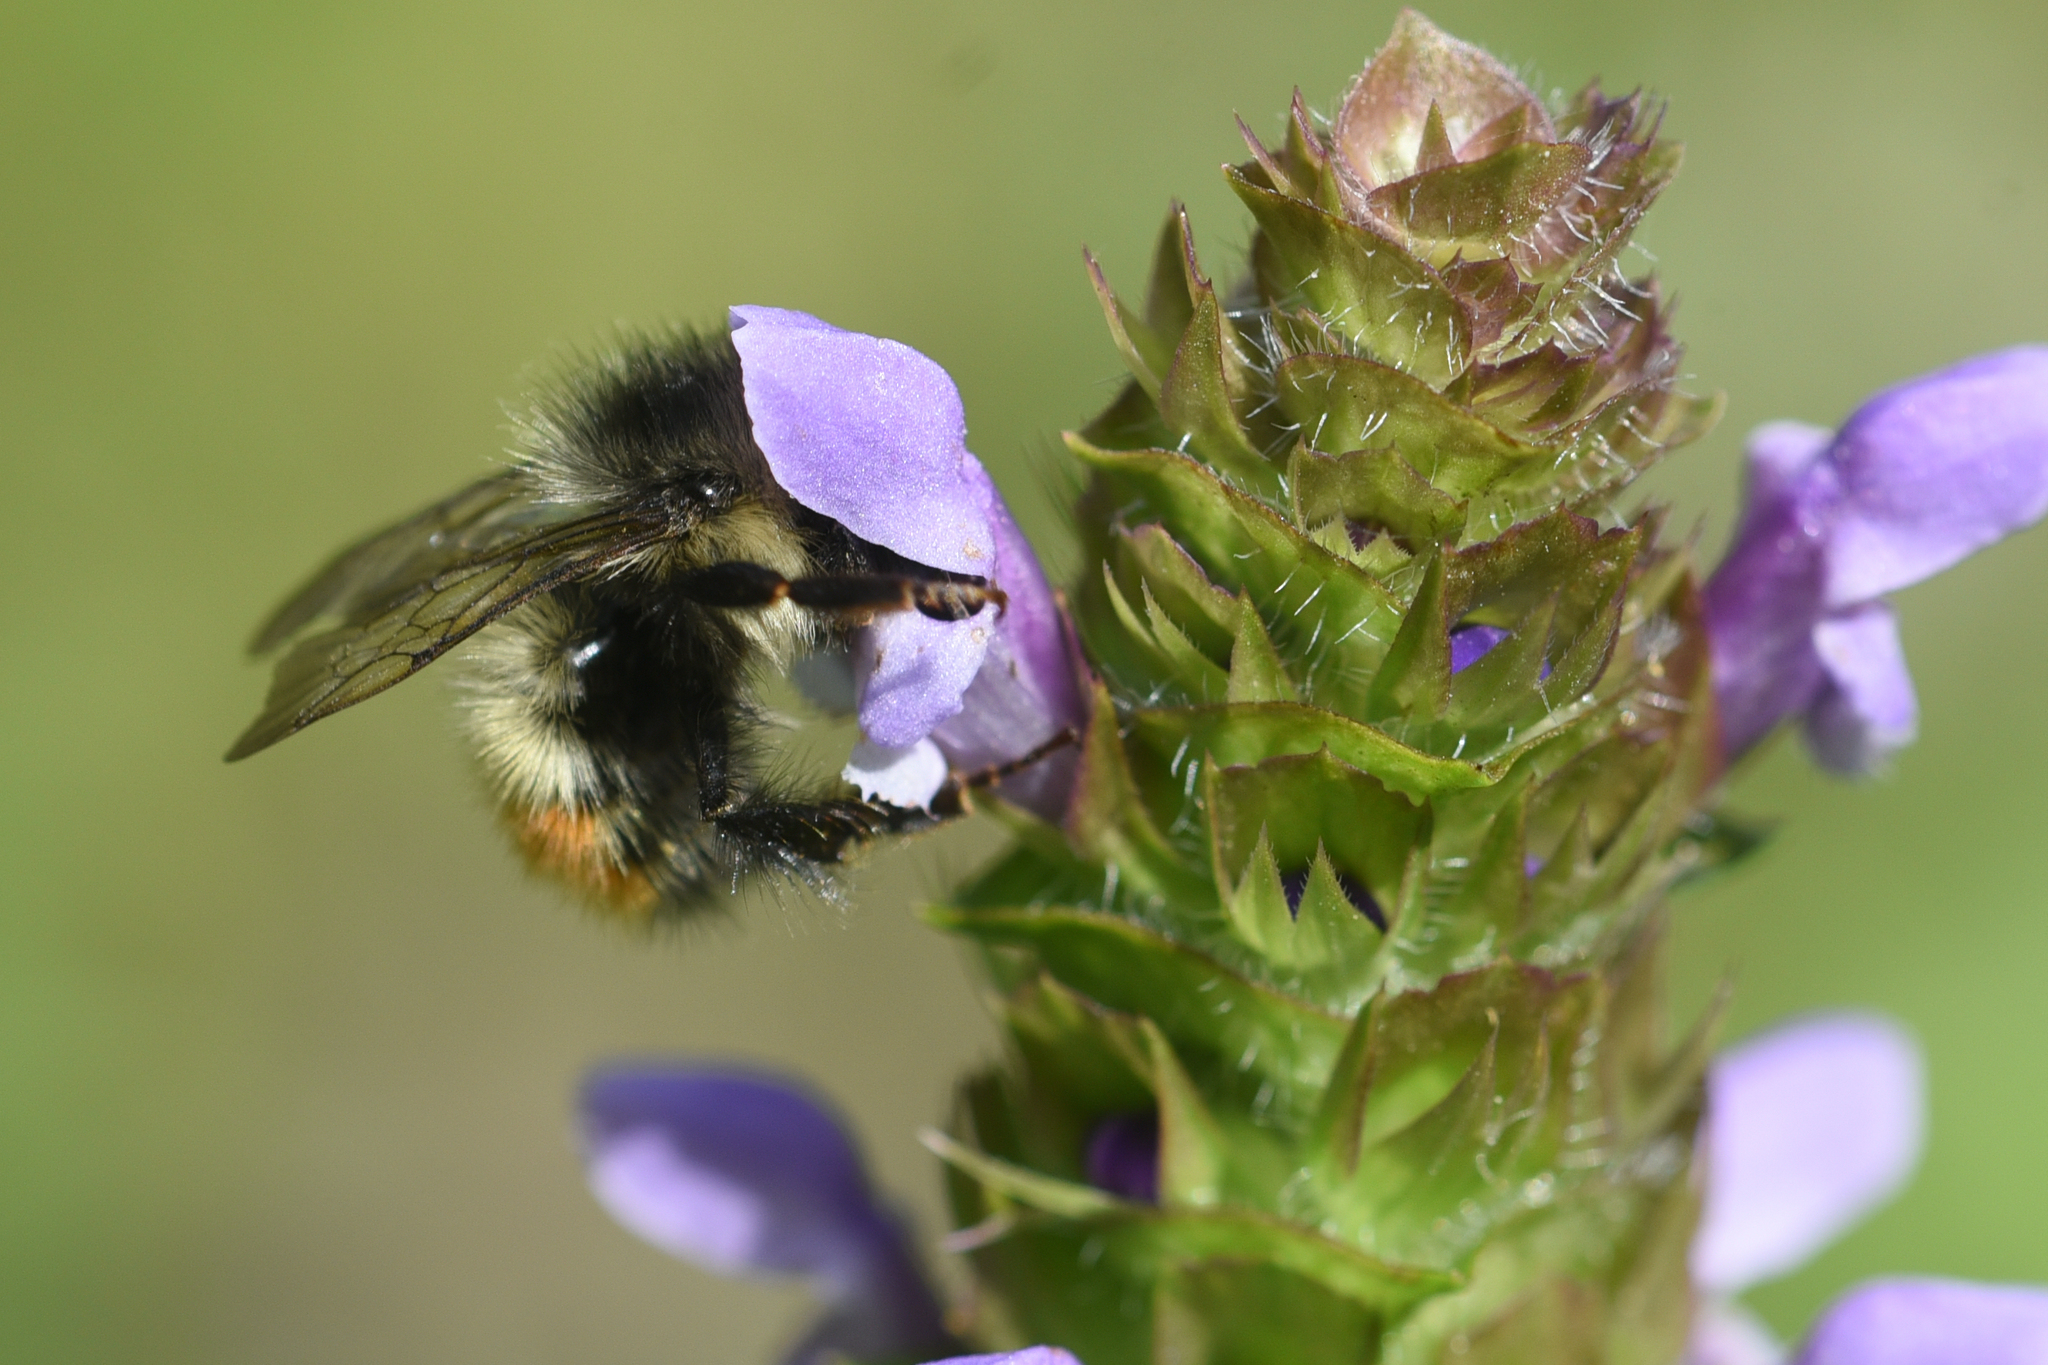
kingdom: Animalia
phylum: Arthropoda
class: Insecta
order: Hymenoptera
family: Apidae
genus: Bombus
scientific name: Bombus flavifrons
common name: Yellow head bumble bee
